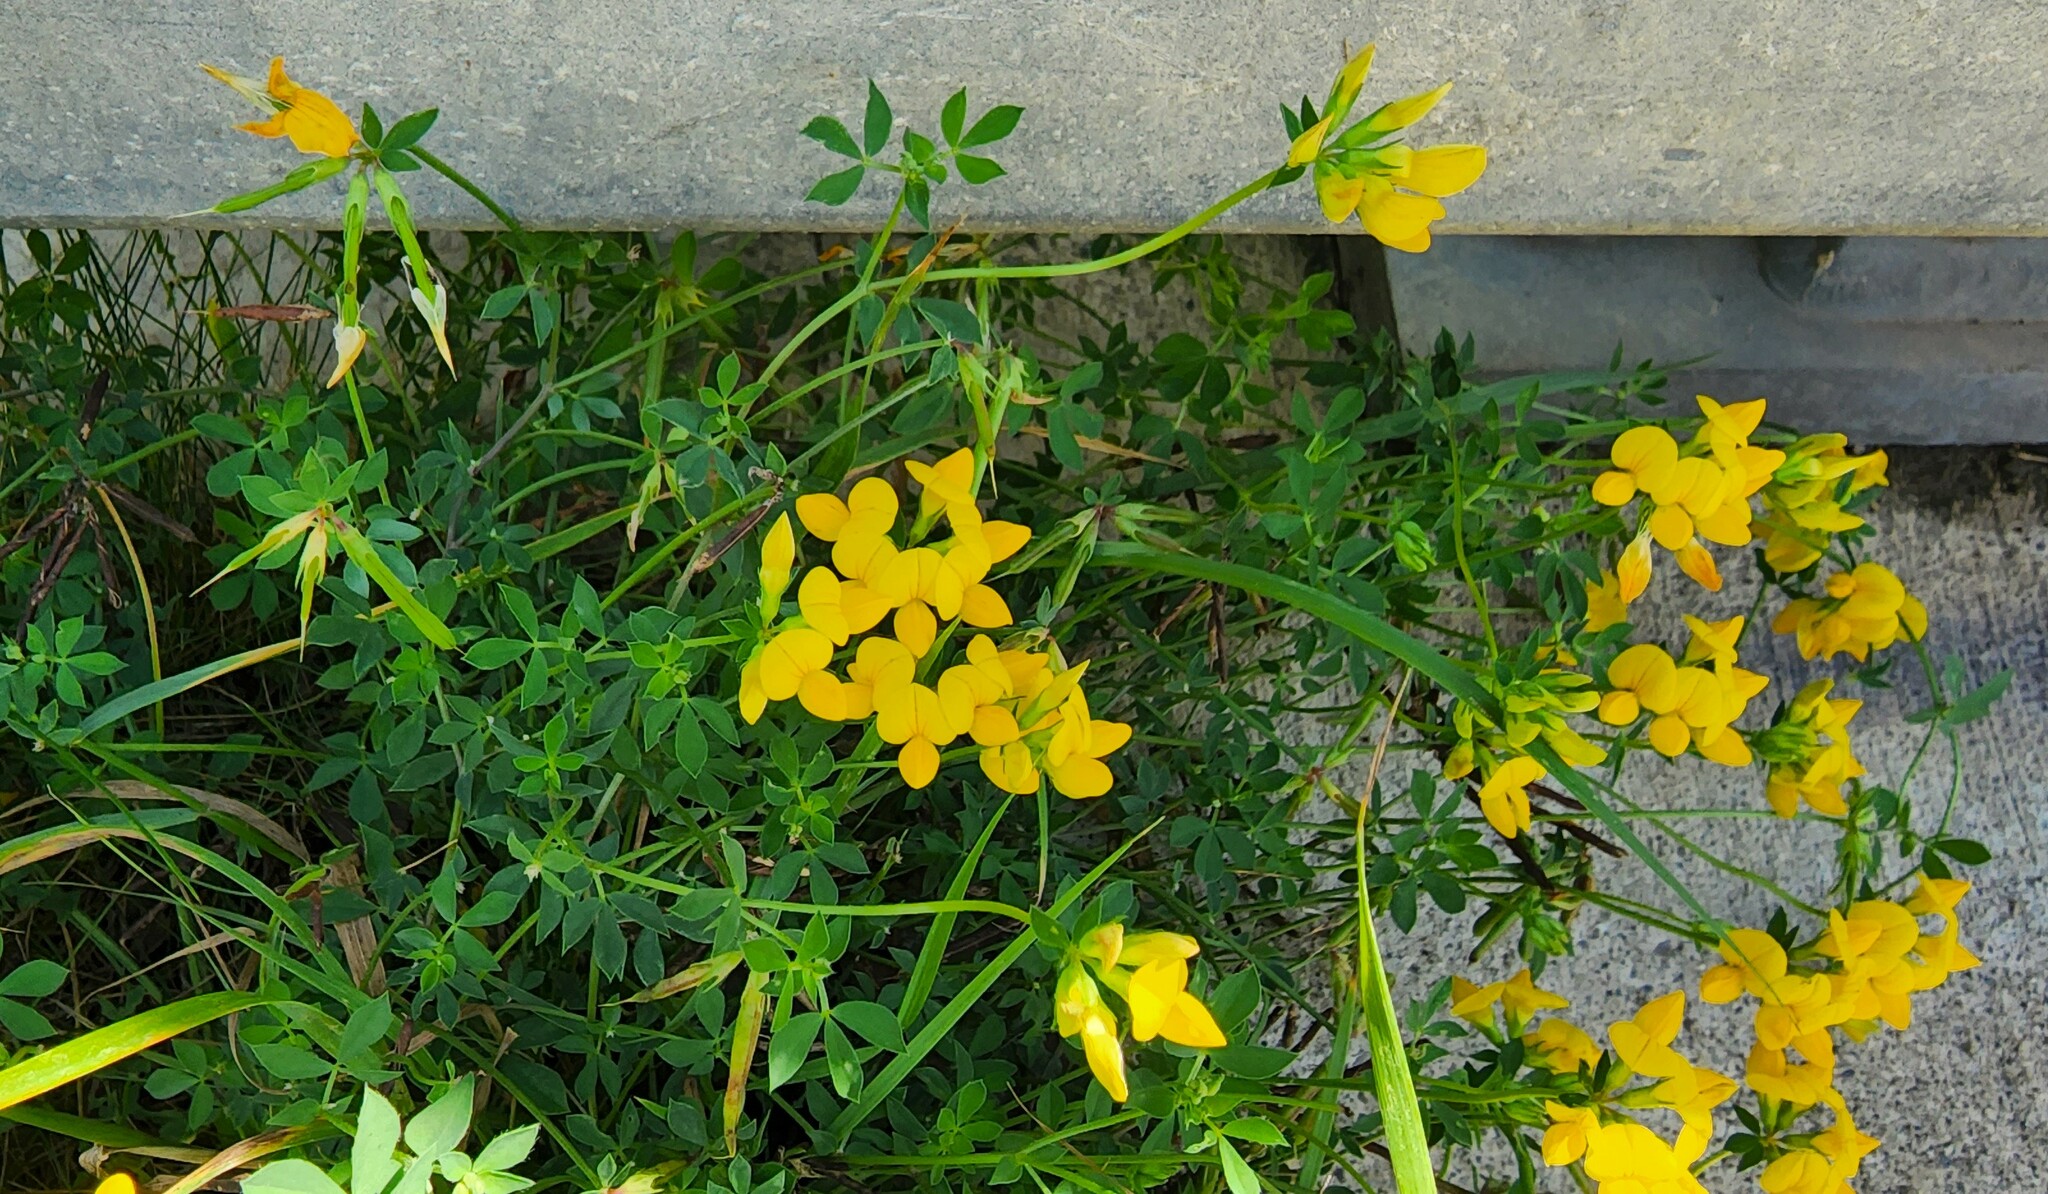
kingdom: Plantae
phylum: Tracheophyta
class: Magnoliopsida
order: Fabales
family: Fabaceae
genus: Lotus
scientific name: Lotus corniculatus
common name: Common bird's-foot-trefoil
